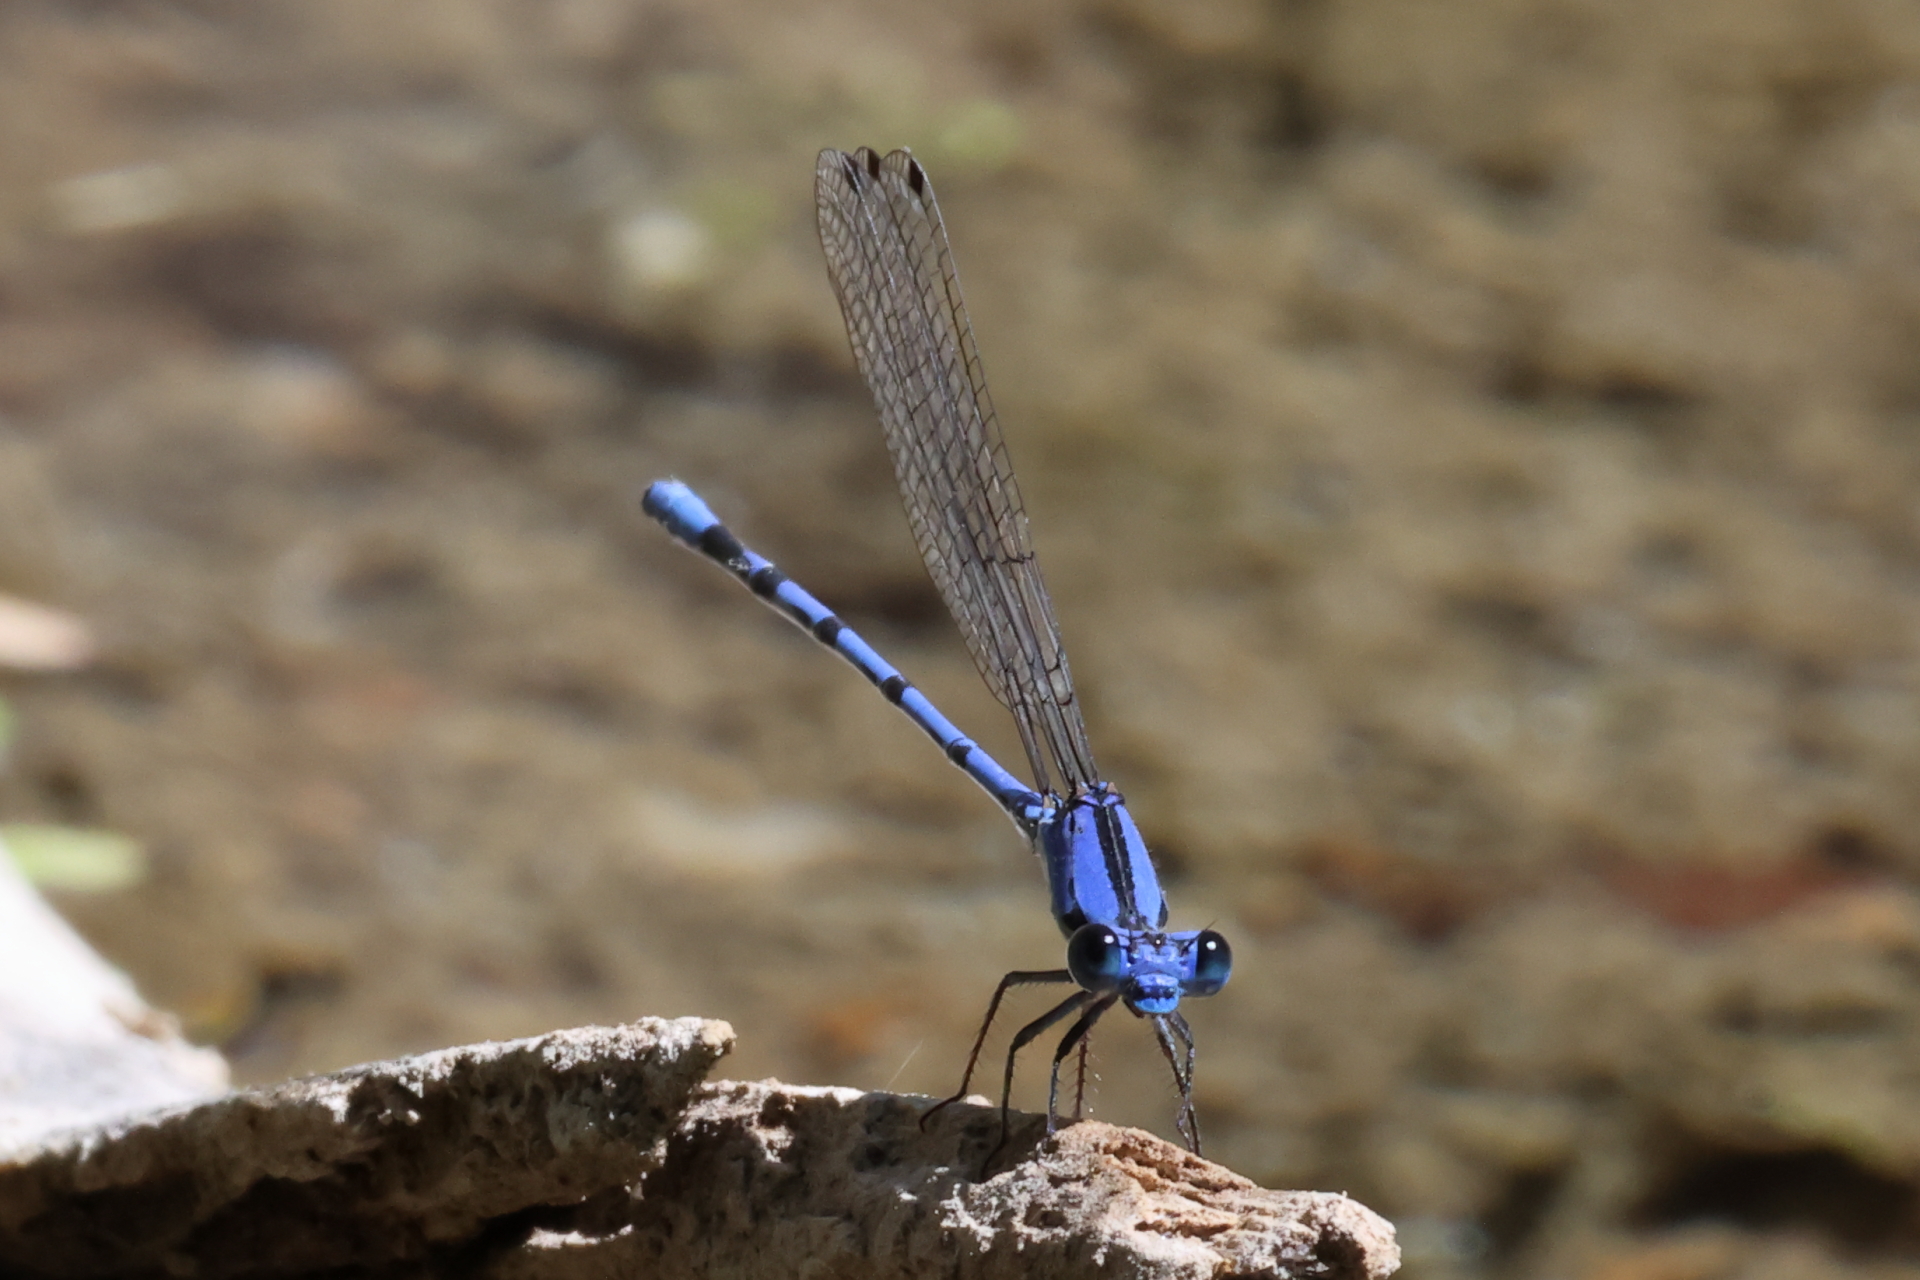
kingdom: Animalia
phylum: Arthropoda
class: Insecta
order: Odonata
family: Coenagrionidae
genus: Argia
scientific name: Argia extranea
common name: Spine-tipped dancer
